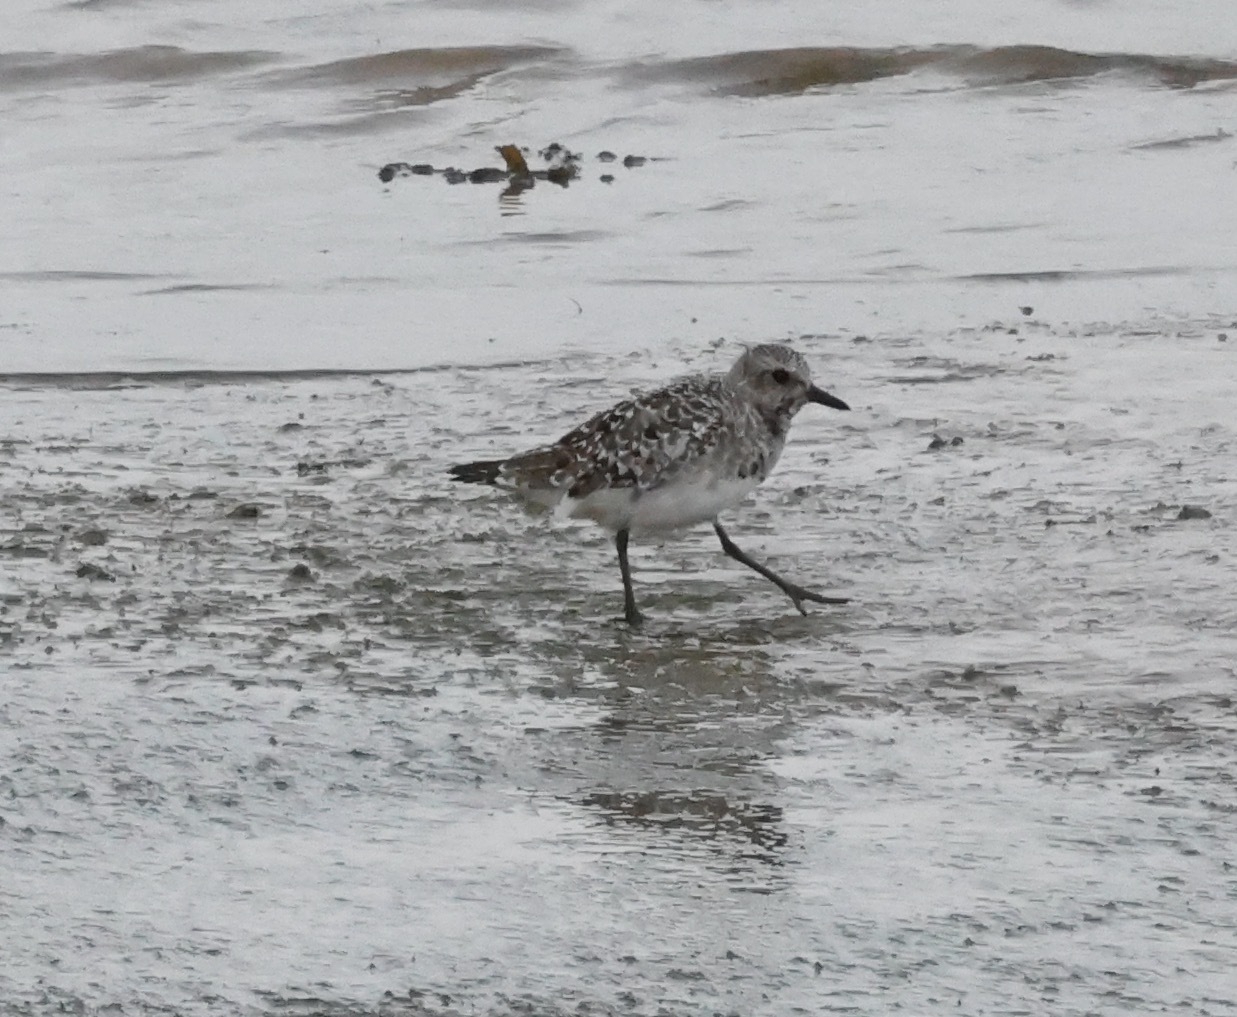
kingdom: Animalia
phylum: Chordata
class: Aves
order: Charadriiformes
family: Charadriidae
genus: Pluvialis
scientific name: Pluvialis squatarola
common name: Grey plover
